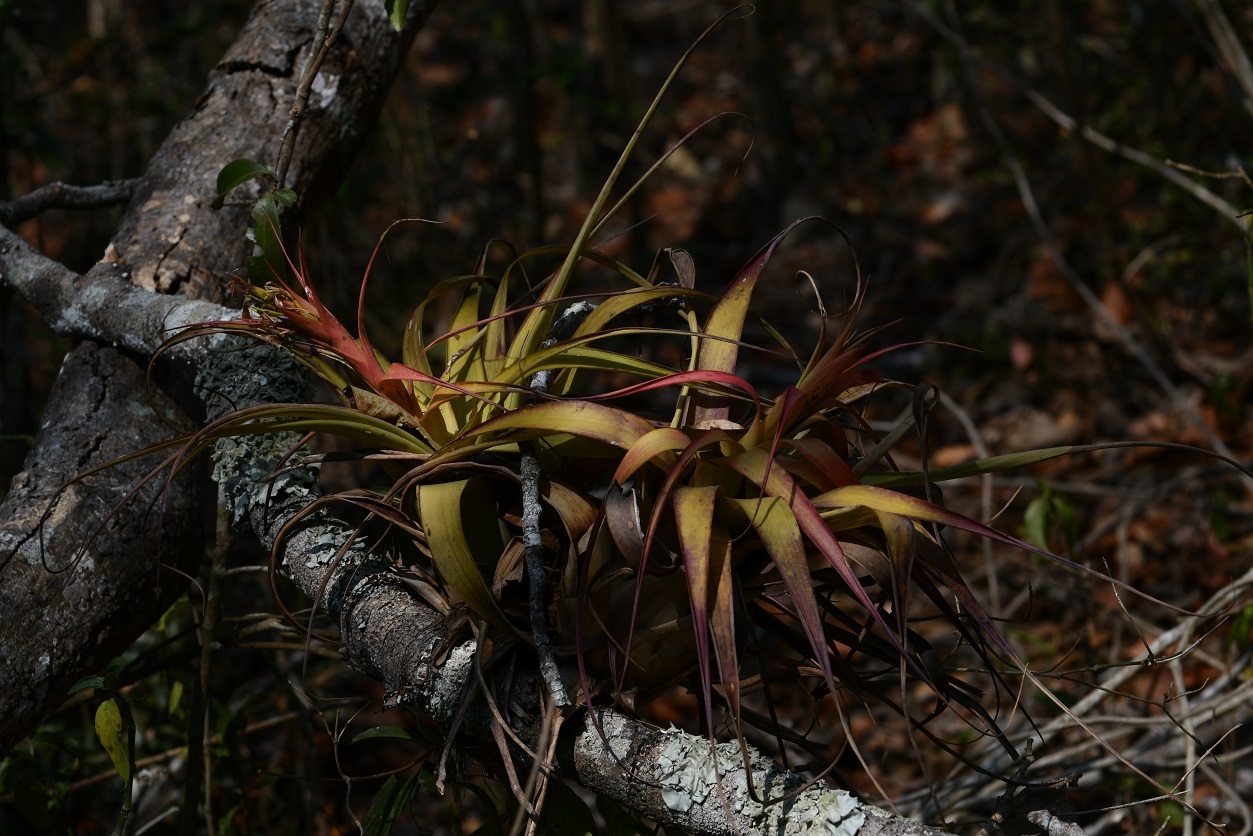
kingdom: Plantae
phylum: Tracheophyta
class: Liliopsida
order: Poales
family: Bromeliaceae
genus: Tillandsia
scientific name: Tillandsia belloensis
